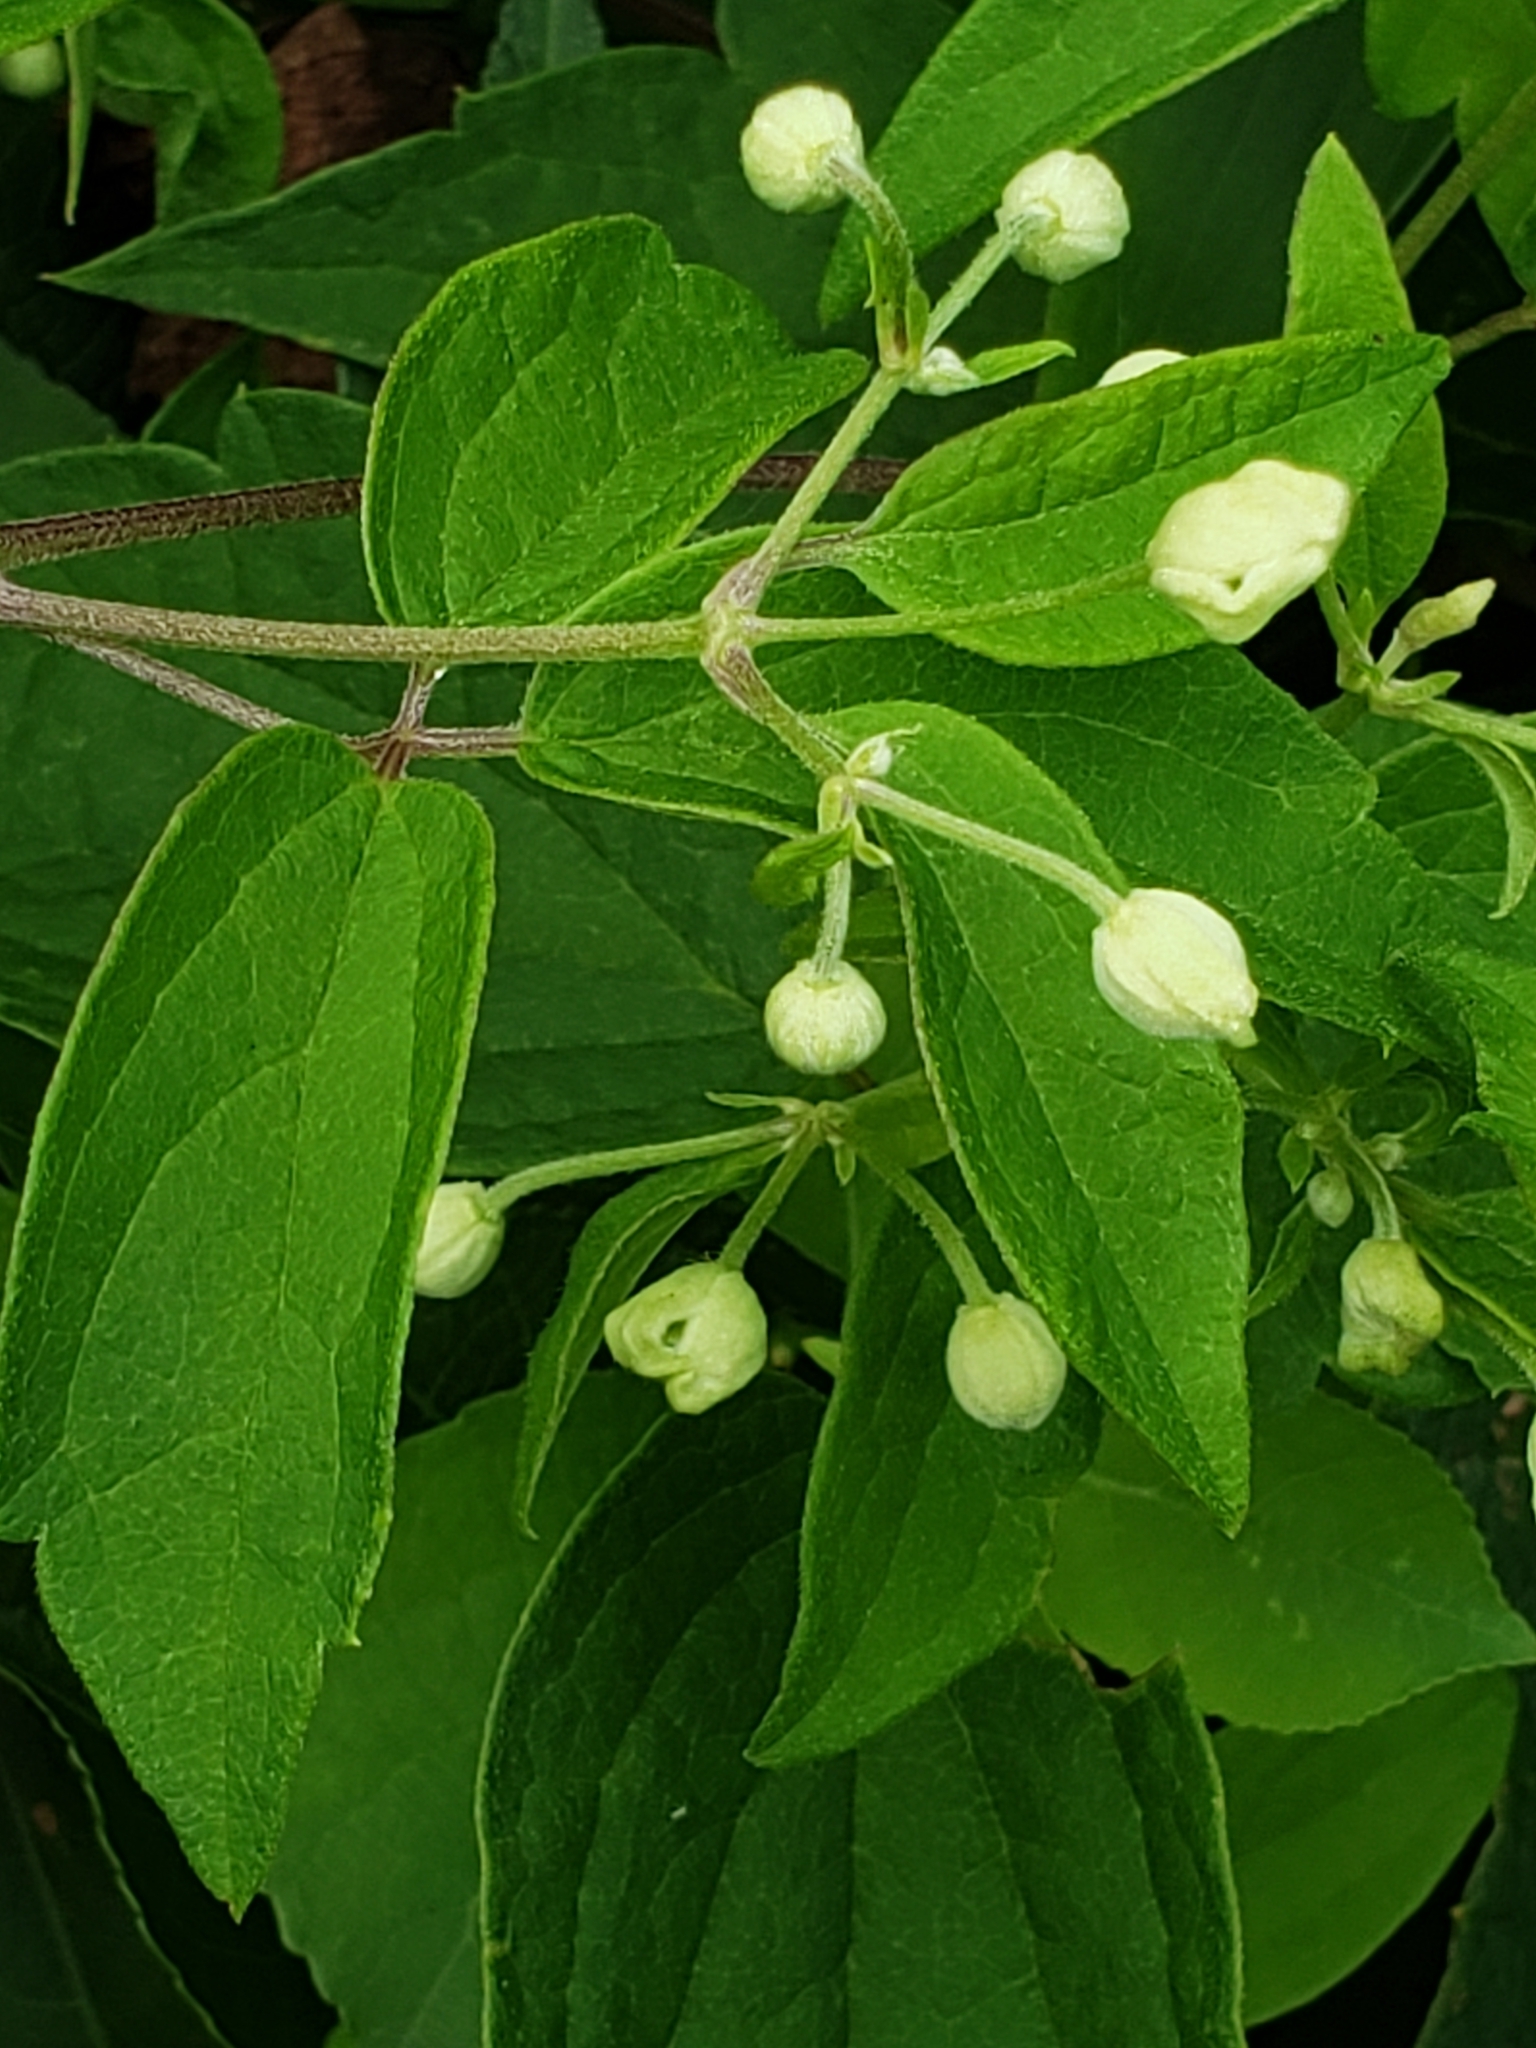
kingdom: Plantae
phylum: Tracheophyta
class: Magnoliopsida
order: Ranunculales
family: Ranunculaceae
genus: Clematis
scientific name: Clematis virginiana
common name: Virgin's-bower
